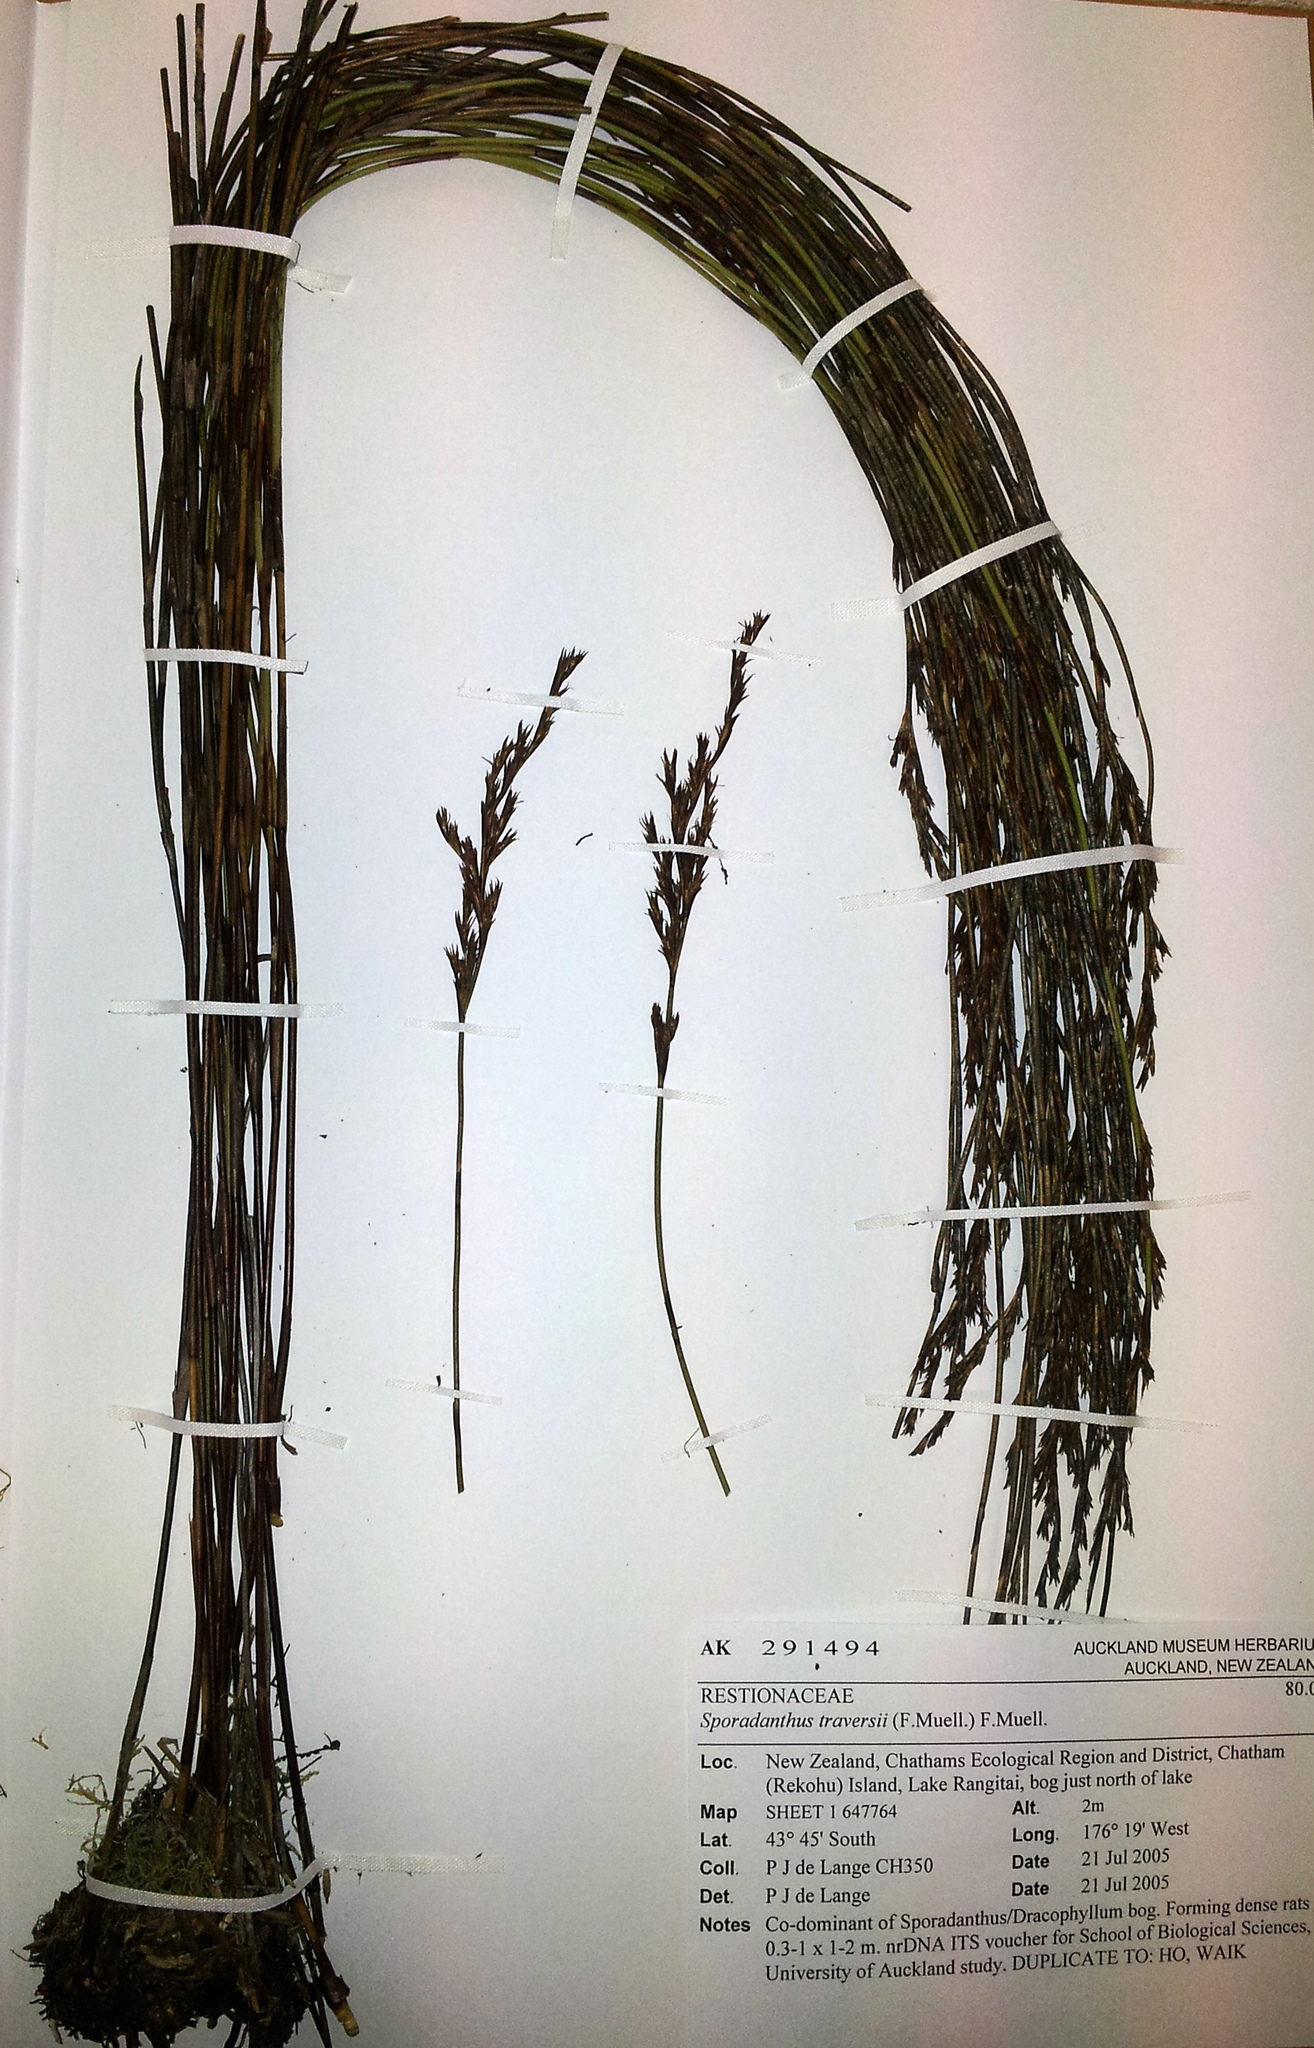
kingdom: Plantae
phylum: Tracheophyta
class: Liliopsida
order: Poales
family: Restionaceae
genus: Sporadanthus
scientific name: Sporadanthus traversii
